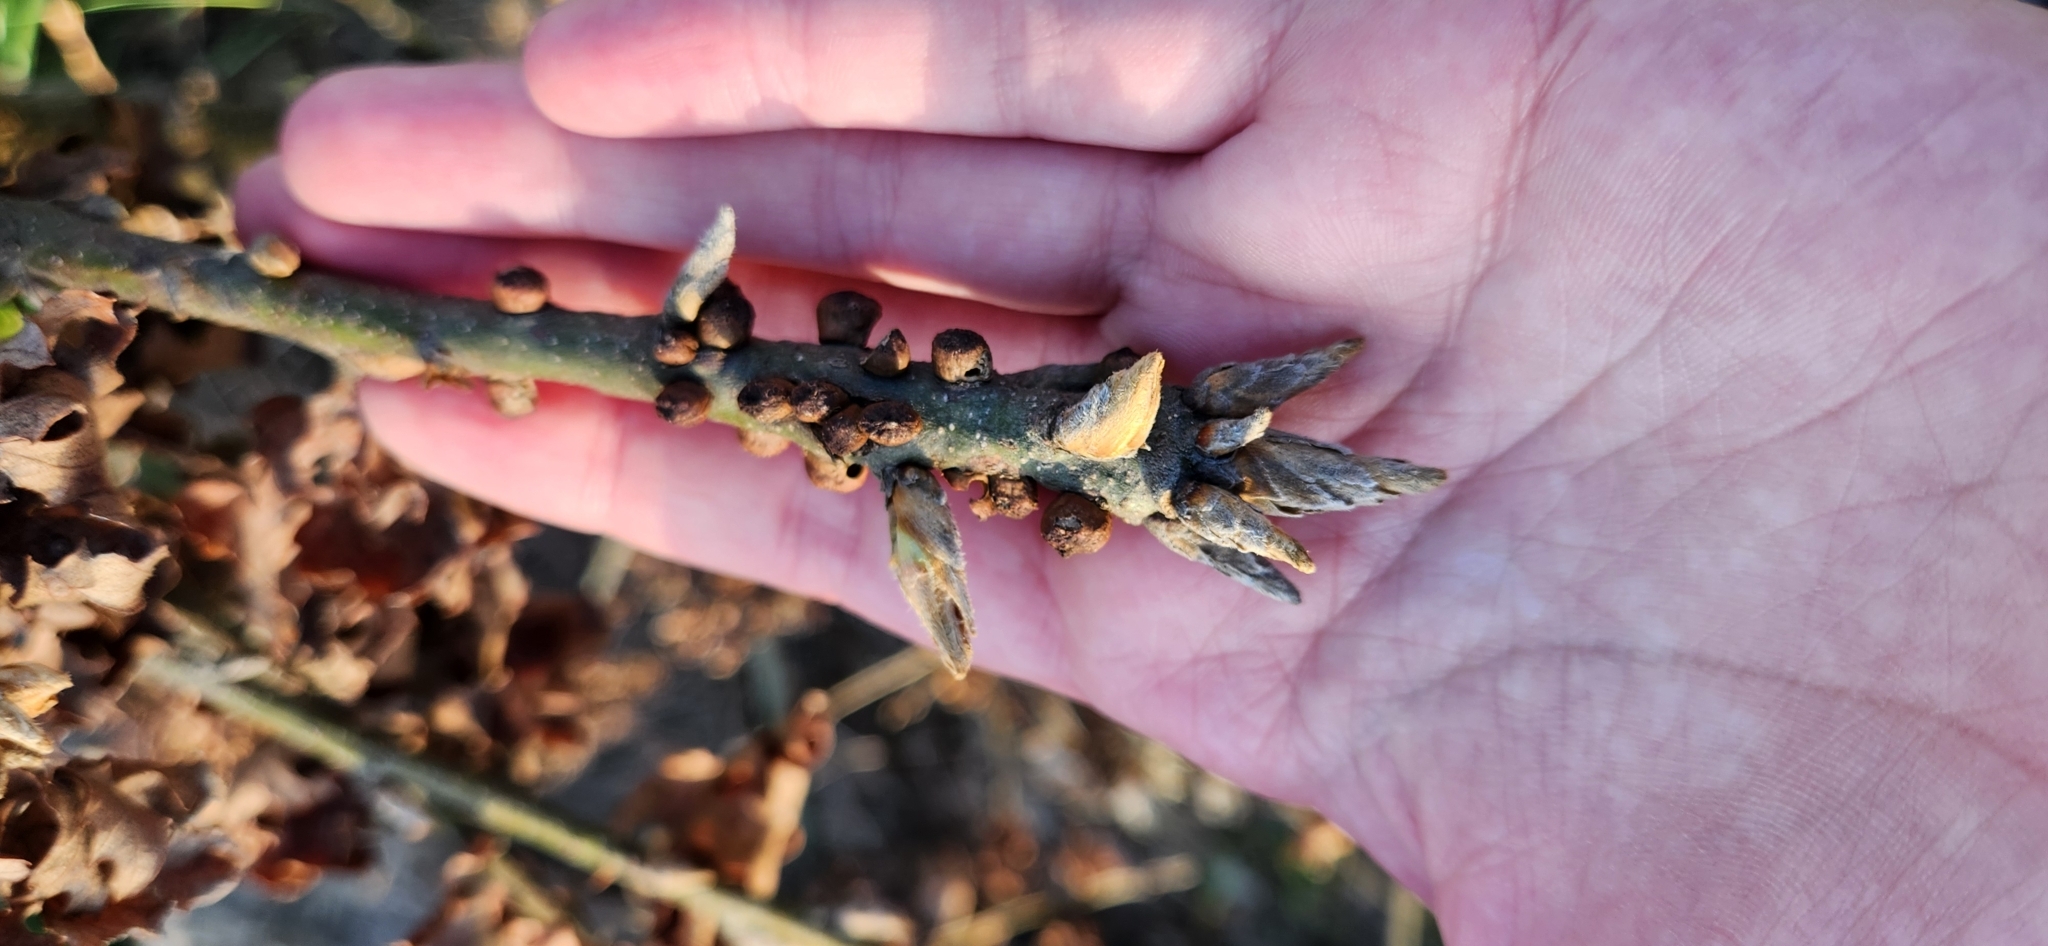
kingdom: Animalia
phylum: Arthropoda
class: Insecta
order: Hymenoptera
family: Cynipidae
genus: Disholcaspis
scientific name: Disholcaspis
